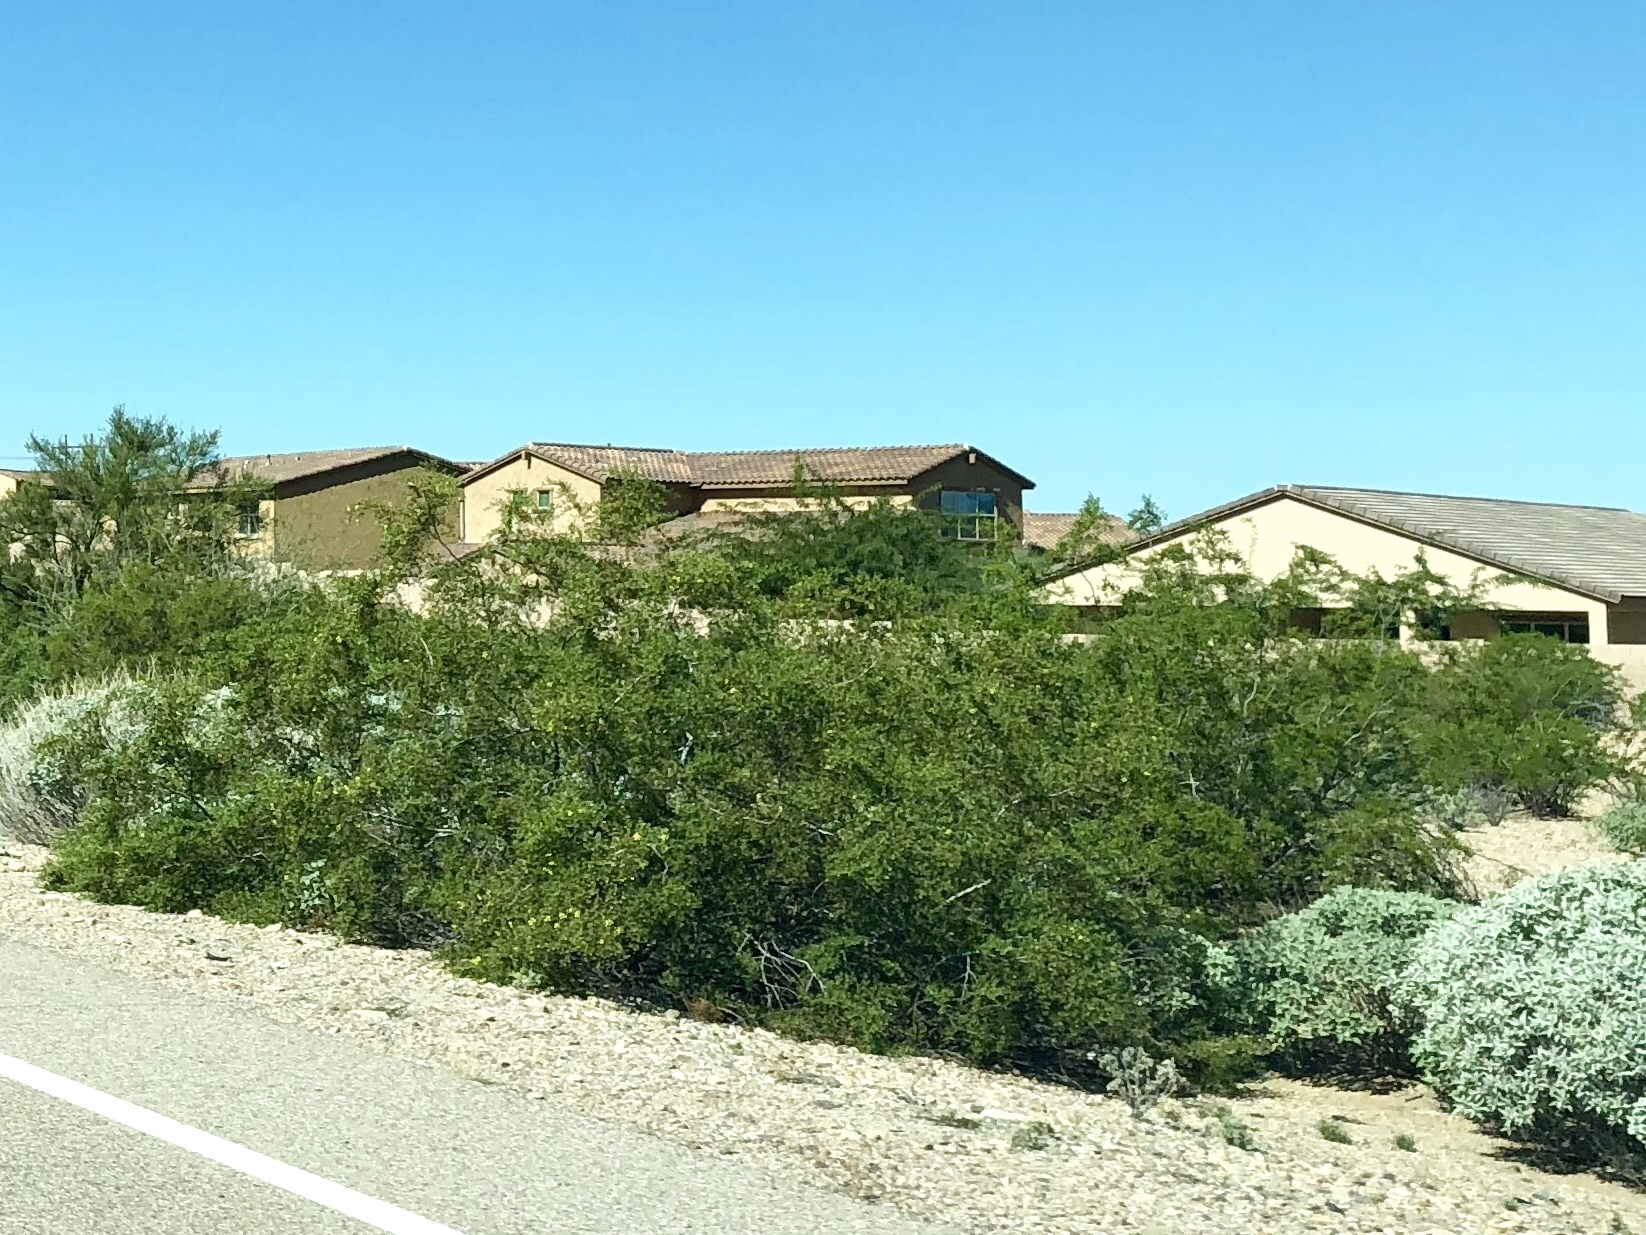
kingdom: Plantae
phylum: Tracheophyta
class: Magnoliopsida
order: Zygophyllales
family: Zygophyllaceae
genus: Larrea
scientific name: Larrea tridentata
